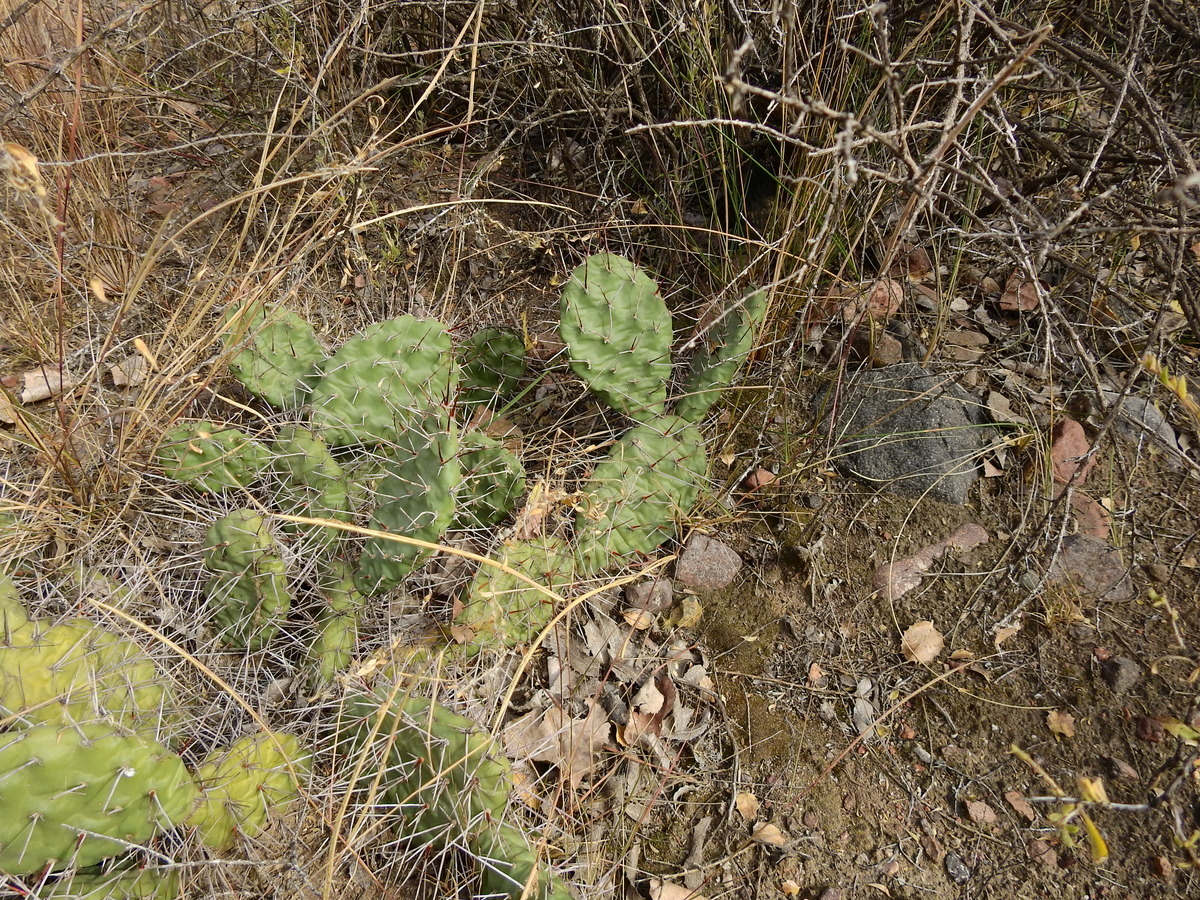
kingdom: Plantae
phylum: Tracheophyta
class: Magnoliopsida
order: Caryophyllales
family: Cactaceae
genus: Opuntia
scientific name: Opuntia sulphurea
